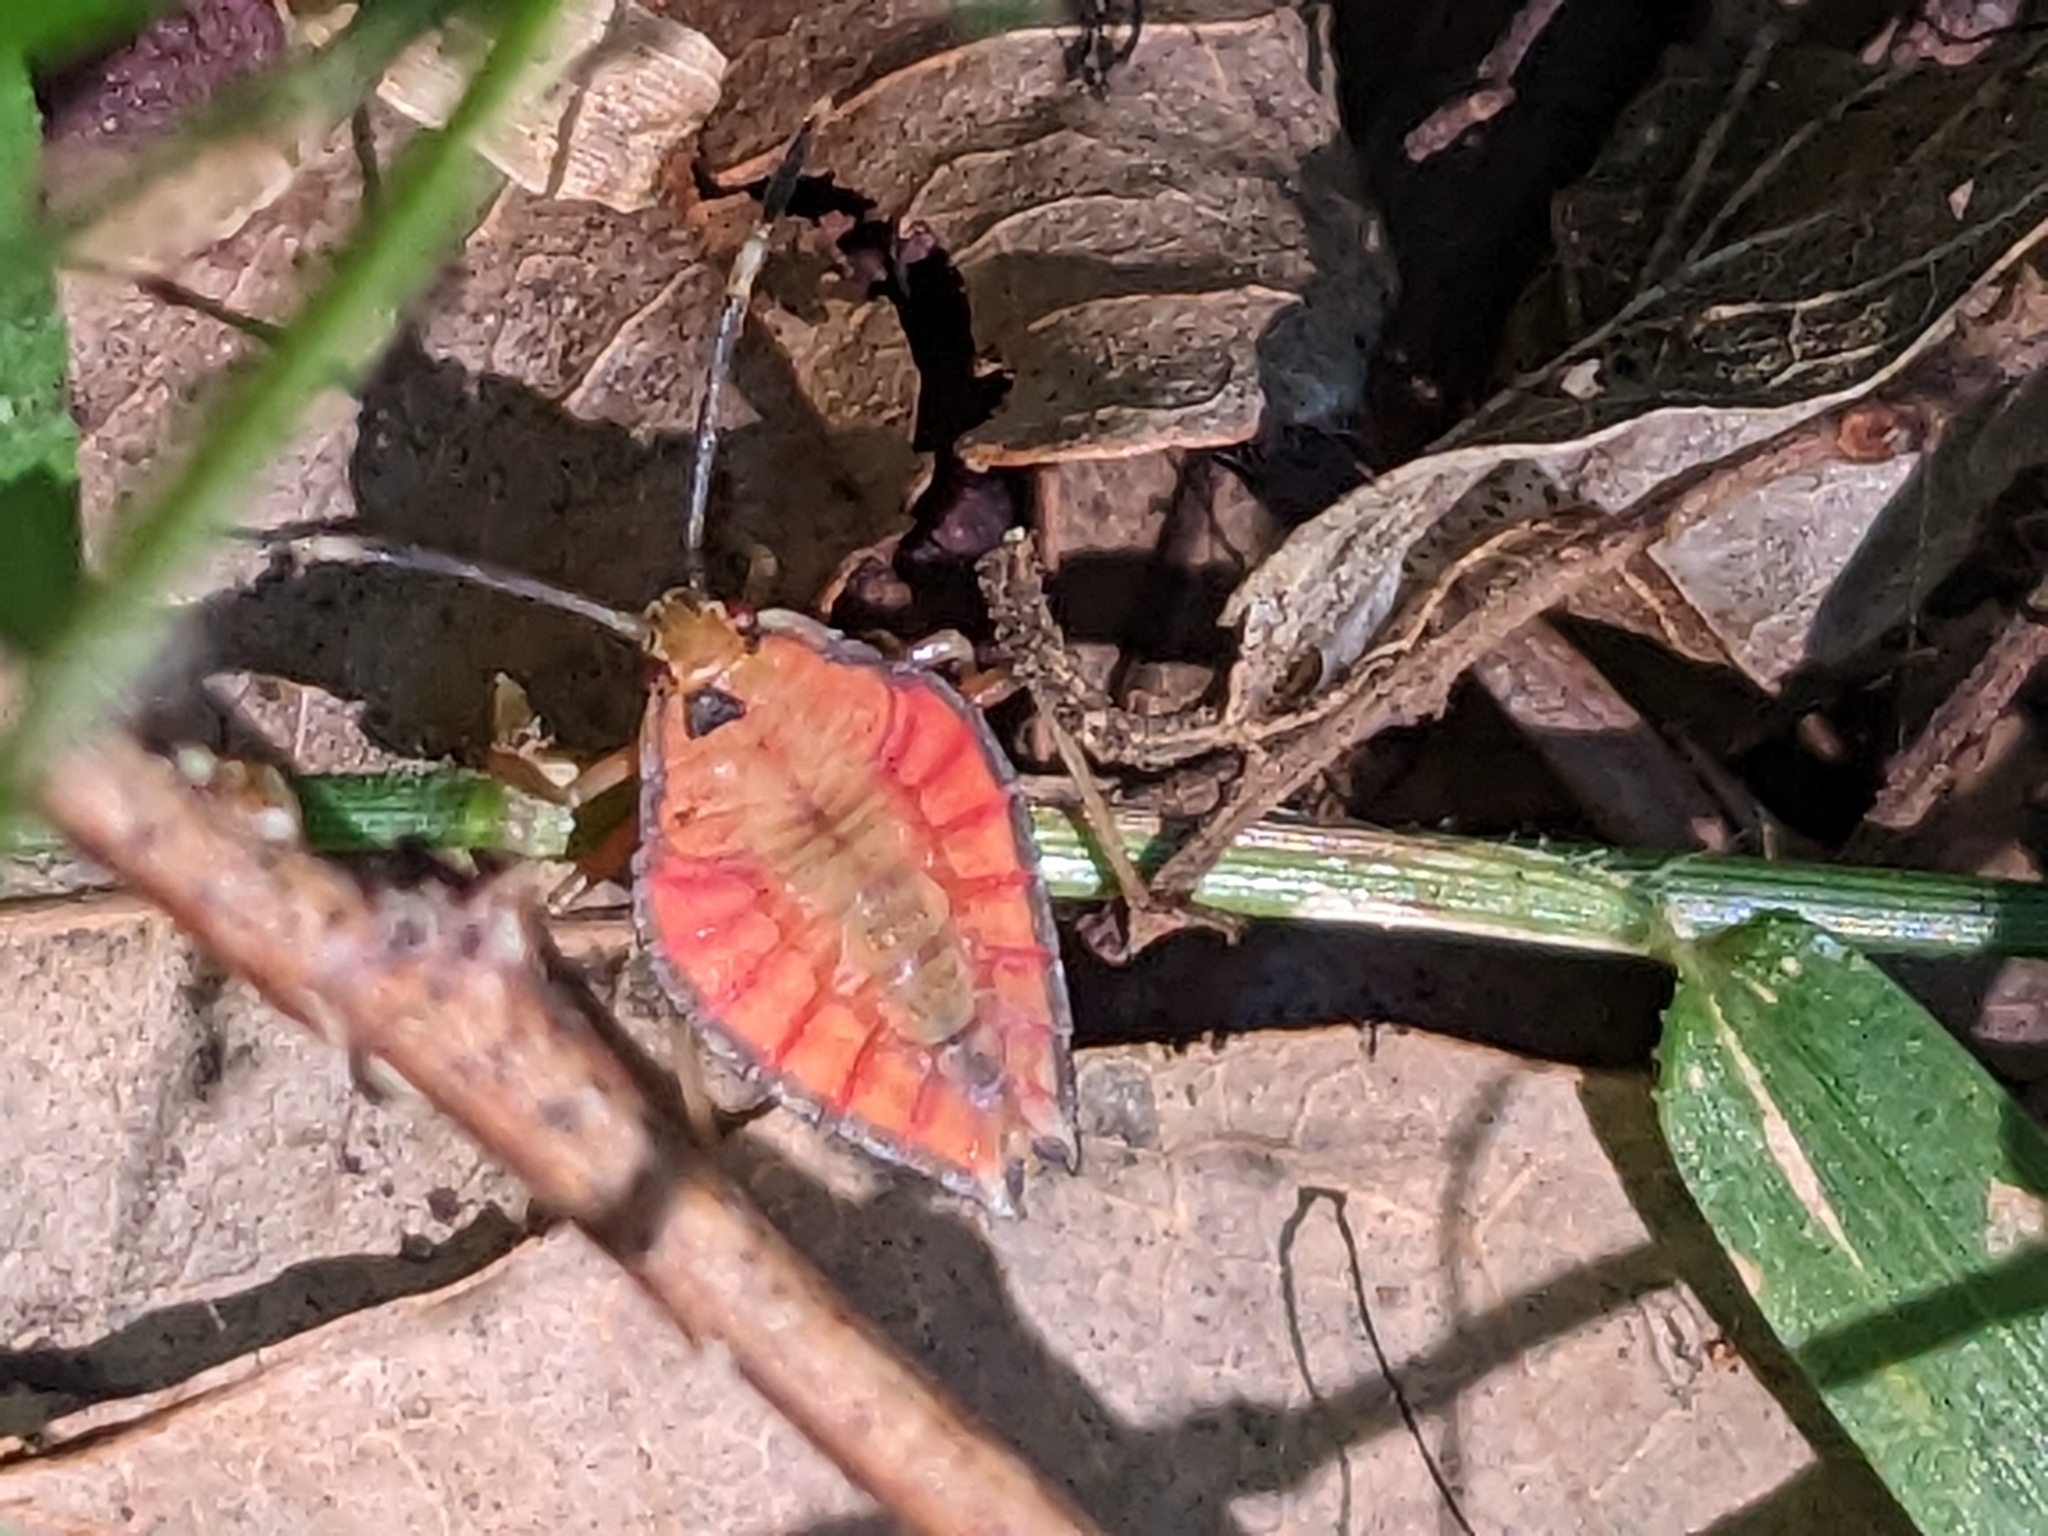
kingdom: Animalia
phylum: Arthropoda
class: Insecta
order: Hemiptera
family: Tessaratomidae
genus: Lyramorpha
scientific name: Lyramorpha rosea
